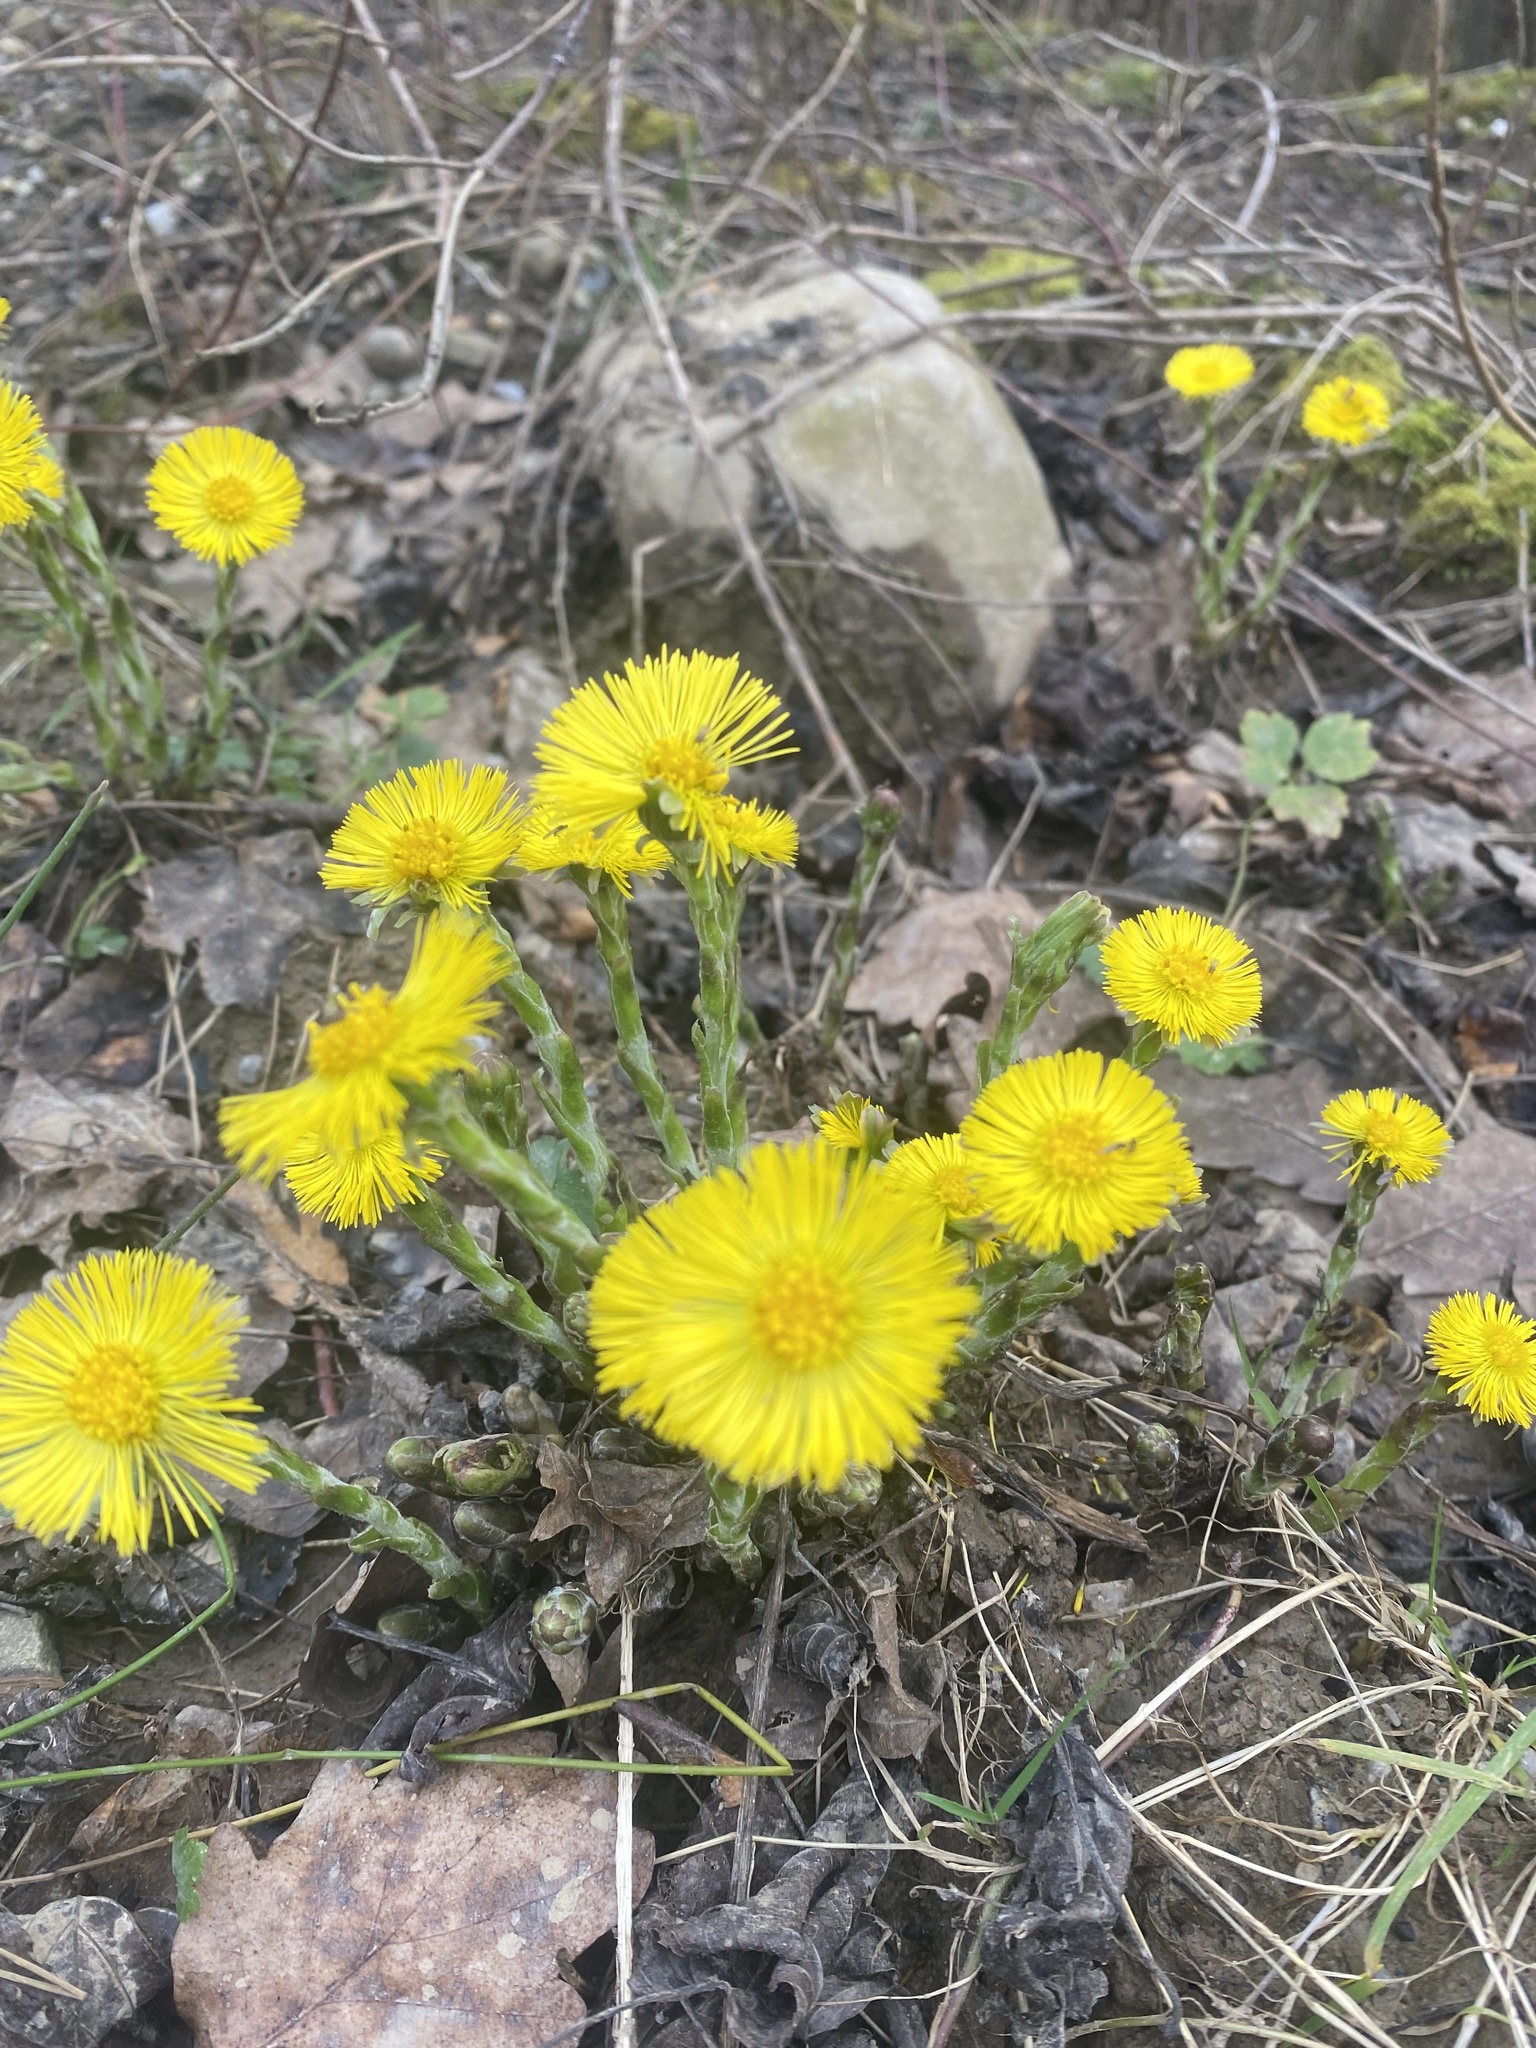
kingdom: Plantae
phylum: Tracheophyta
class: Magnoliopsida
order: Asterales
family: Asteraceae
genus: Tussilago
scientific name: Tussilago farfara
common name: Coltsfoot
